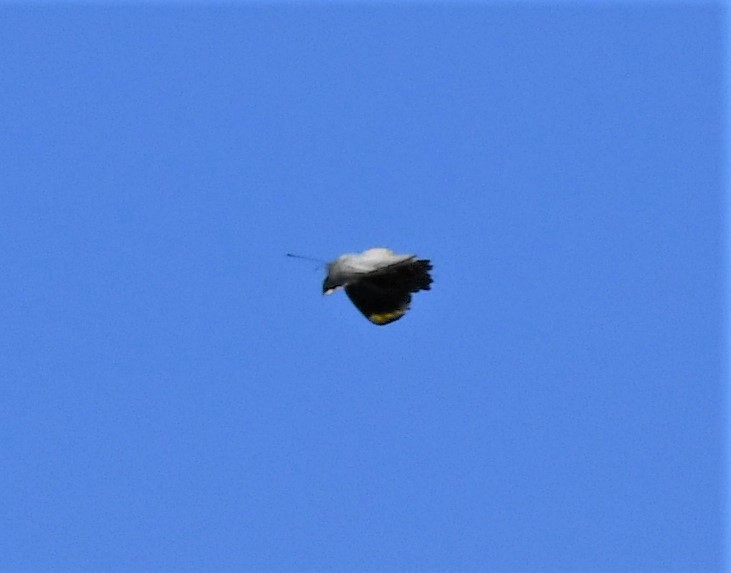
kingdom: Animalia
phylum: Arthropoda
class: Insecta
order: Lepidoptera
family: Pieridae
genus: Delias
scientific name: Delias nigrina
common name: Black jezebel
